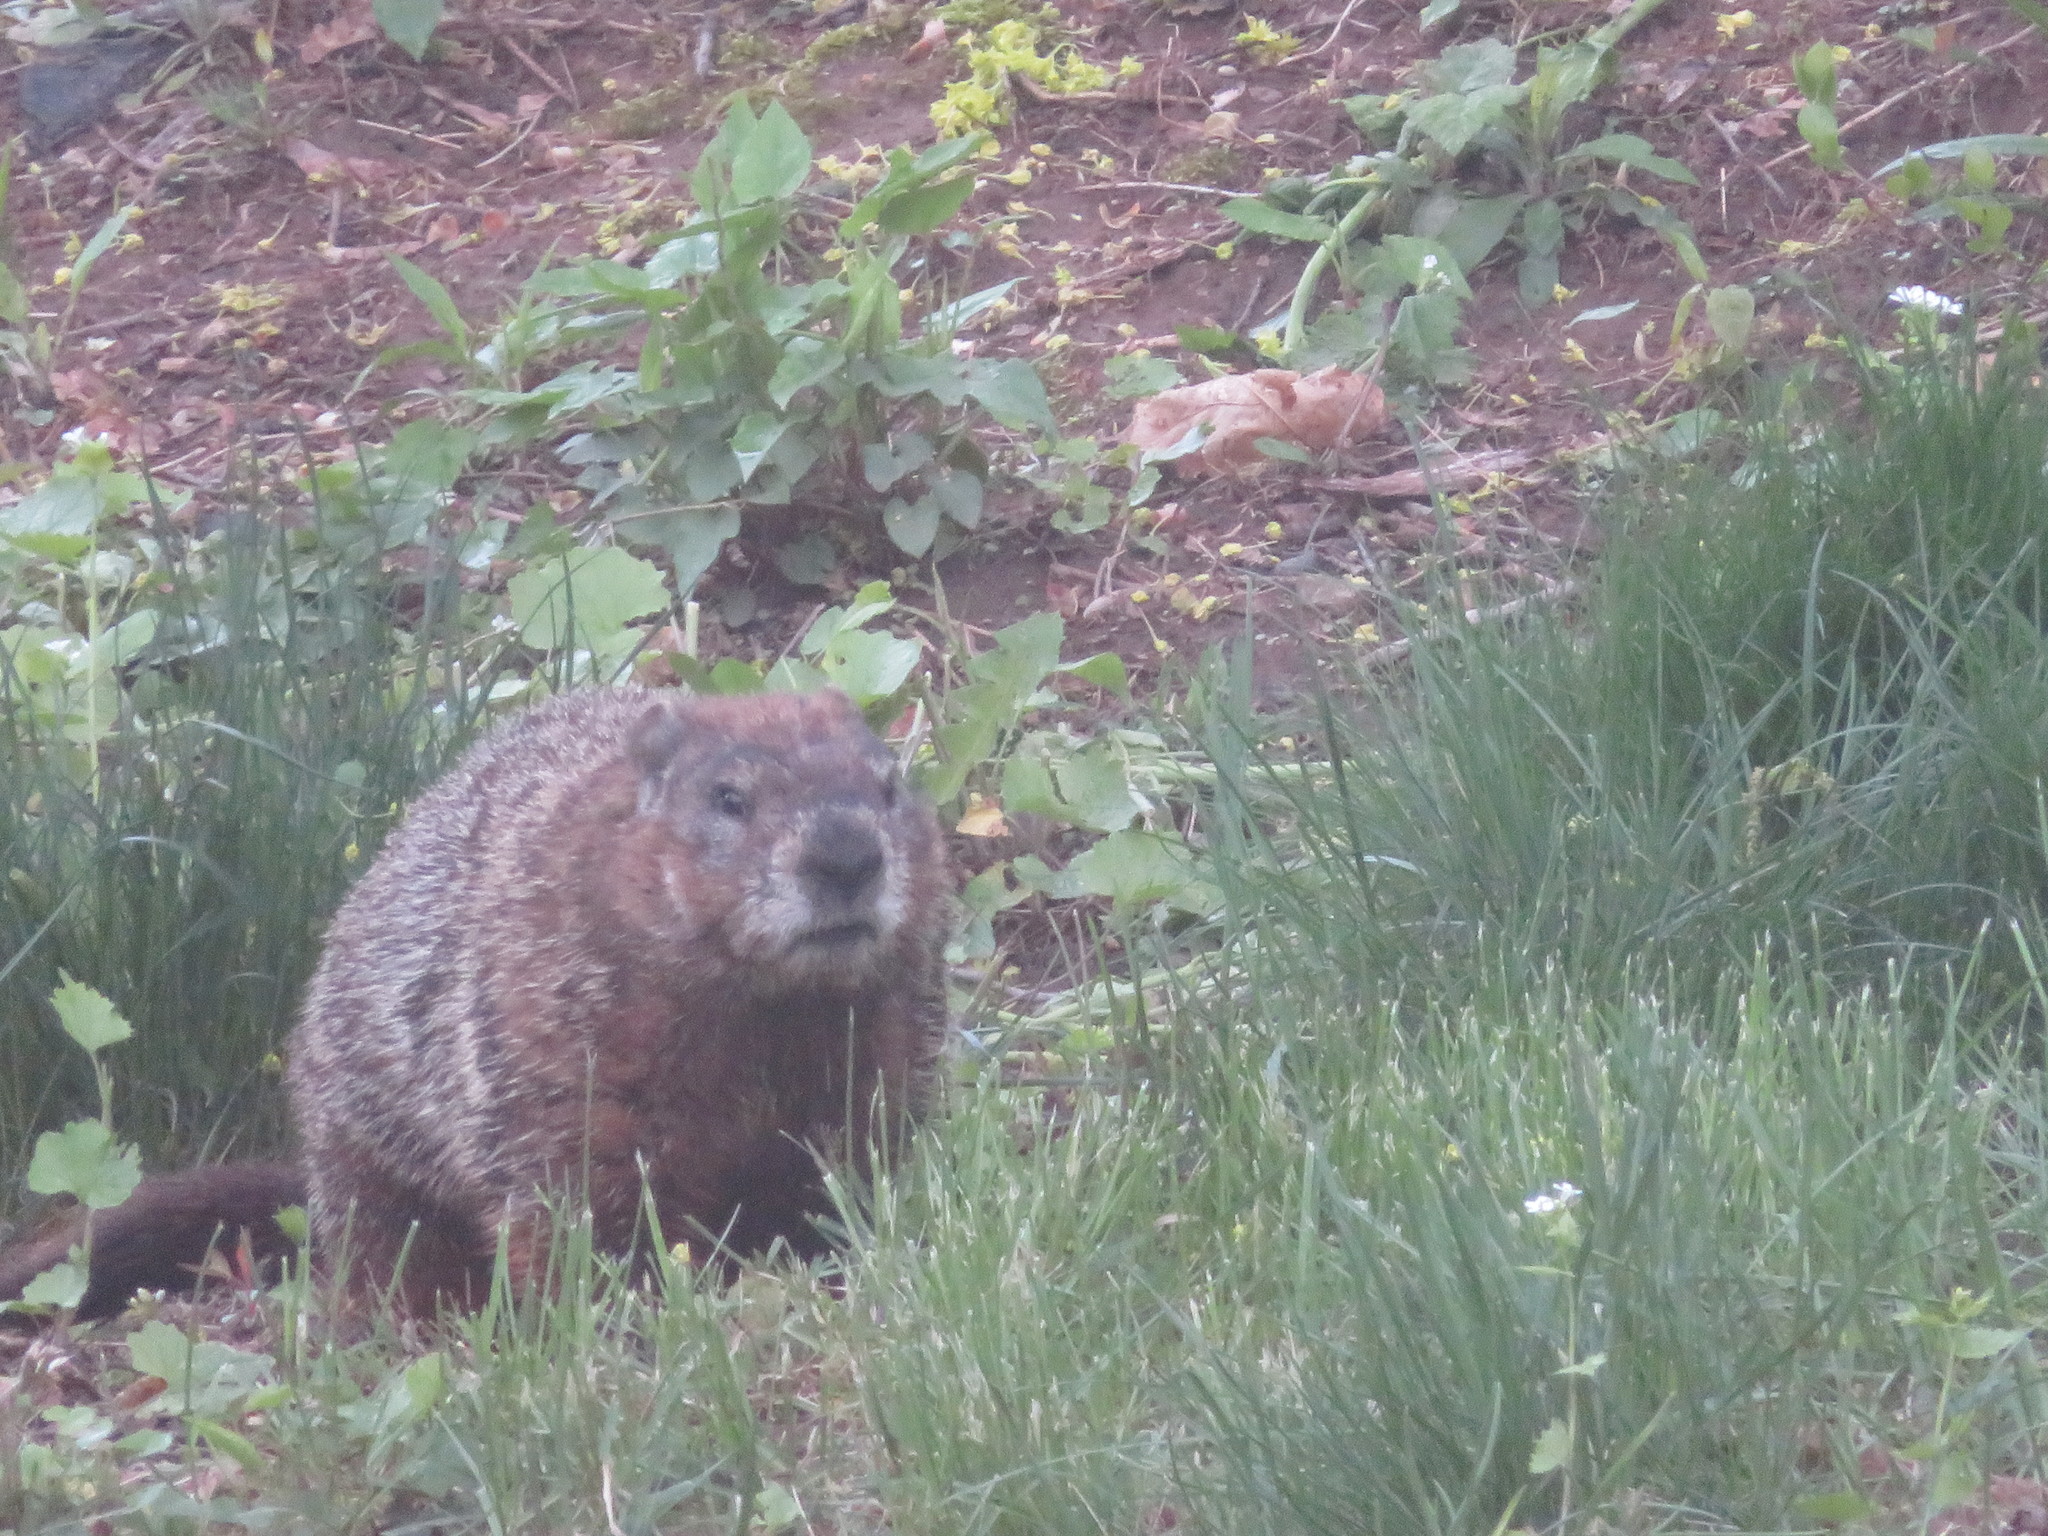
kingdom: Animalia
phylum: Chordata
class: Mammalia
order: Rodentia
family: Sciuridae
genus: Marmota
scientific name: Marmota monax
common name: Groundhog
